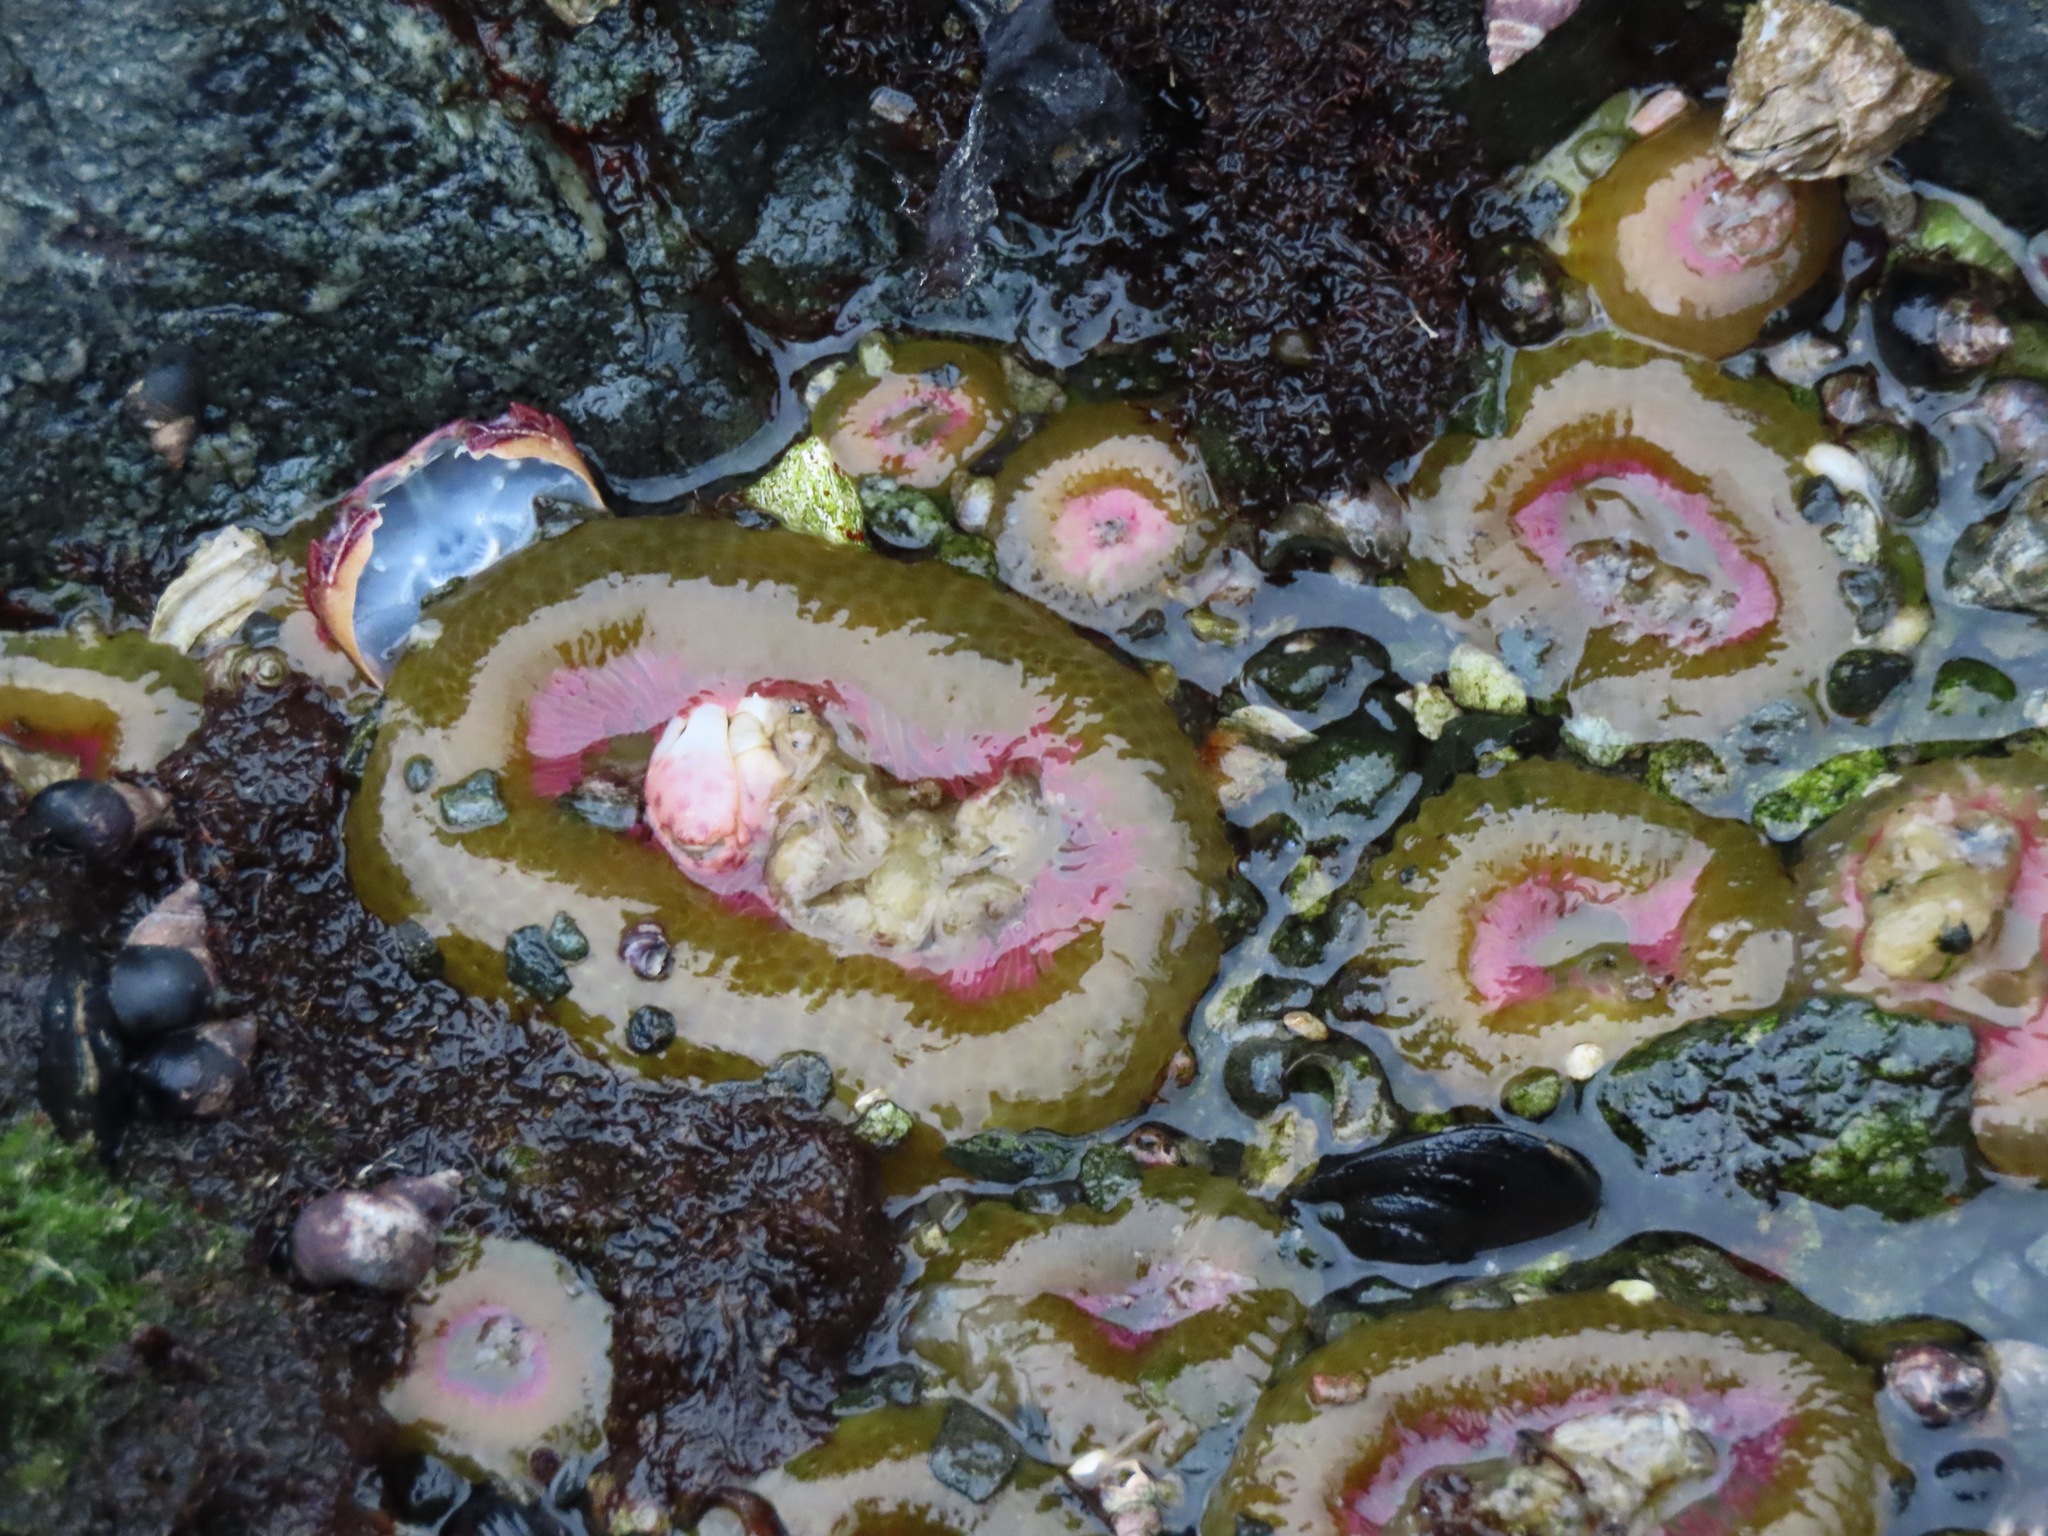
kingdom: Animalia
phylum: Cnidaria
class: Anthozoa
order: Actiniaria
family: Actiniidae
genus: Anthopleura
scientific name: Anthopleura elegantissima
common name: Clonal anemone
